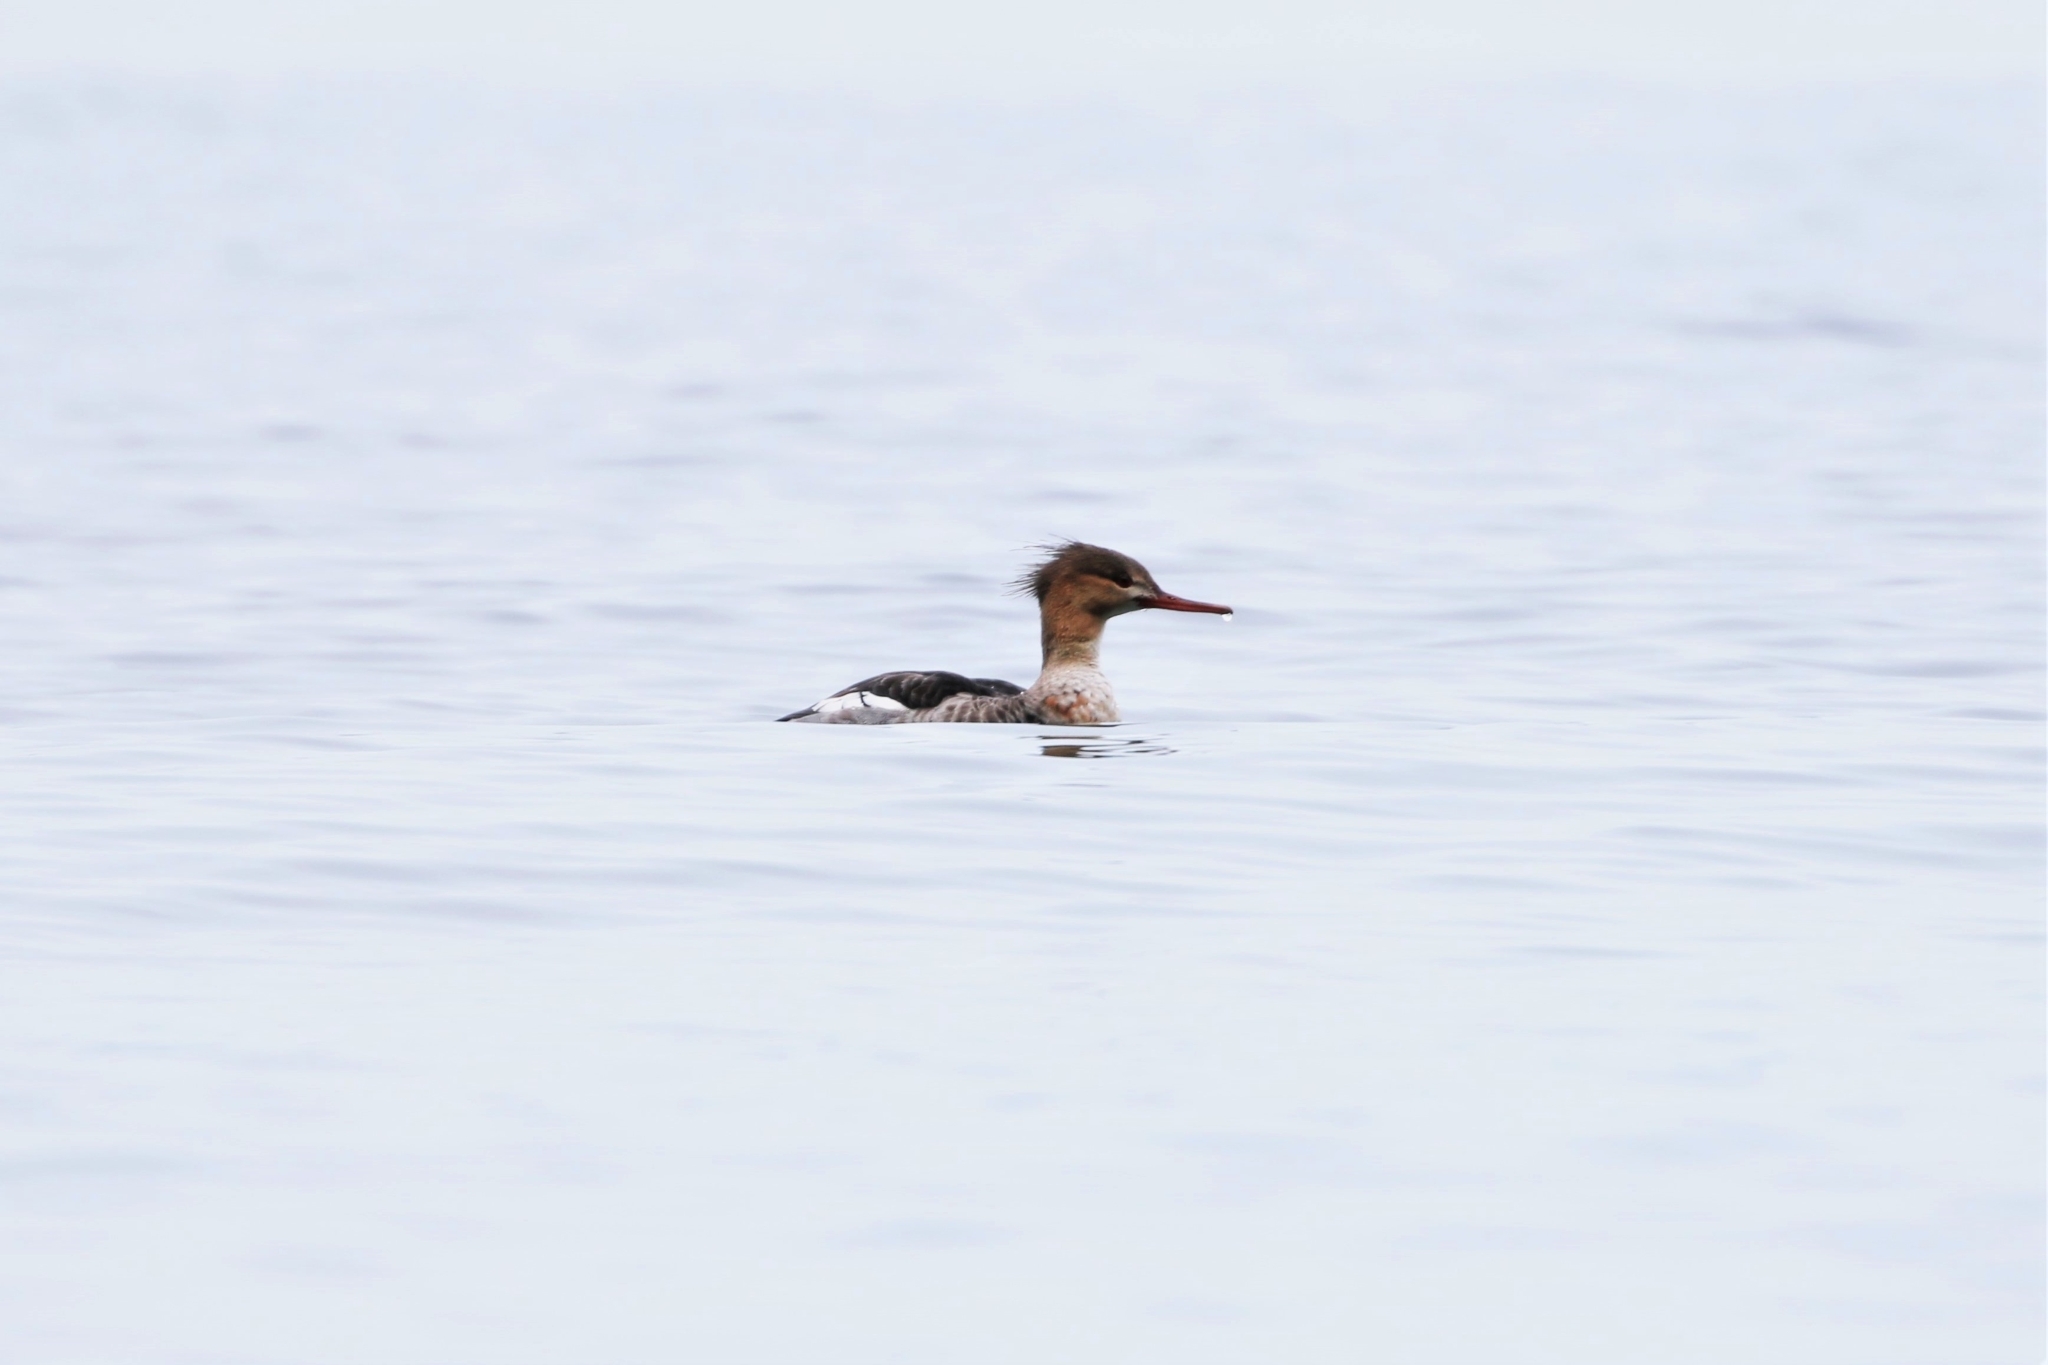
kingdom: Animalia
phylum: Chordata
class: Aves
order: Anseriformes
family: Anatidae
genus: Mergus
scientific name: Mergus serrator
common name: Red-breasted merganser
